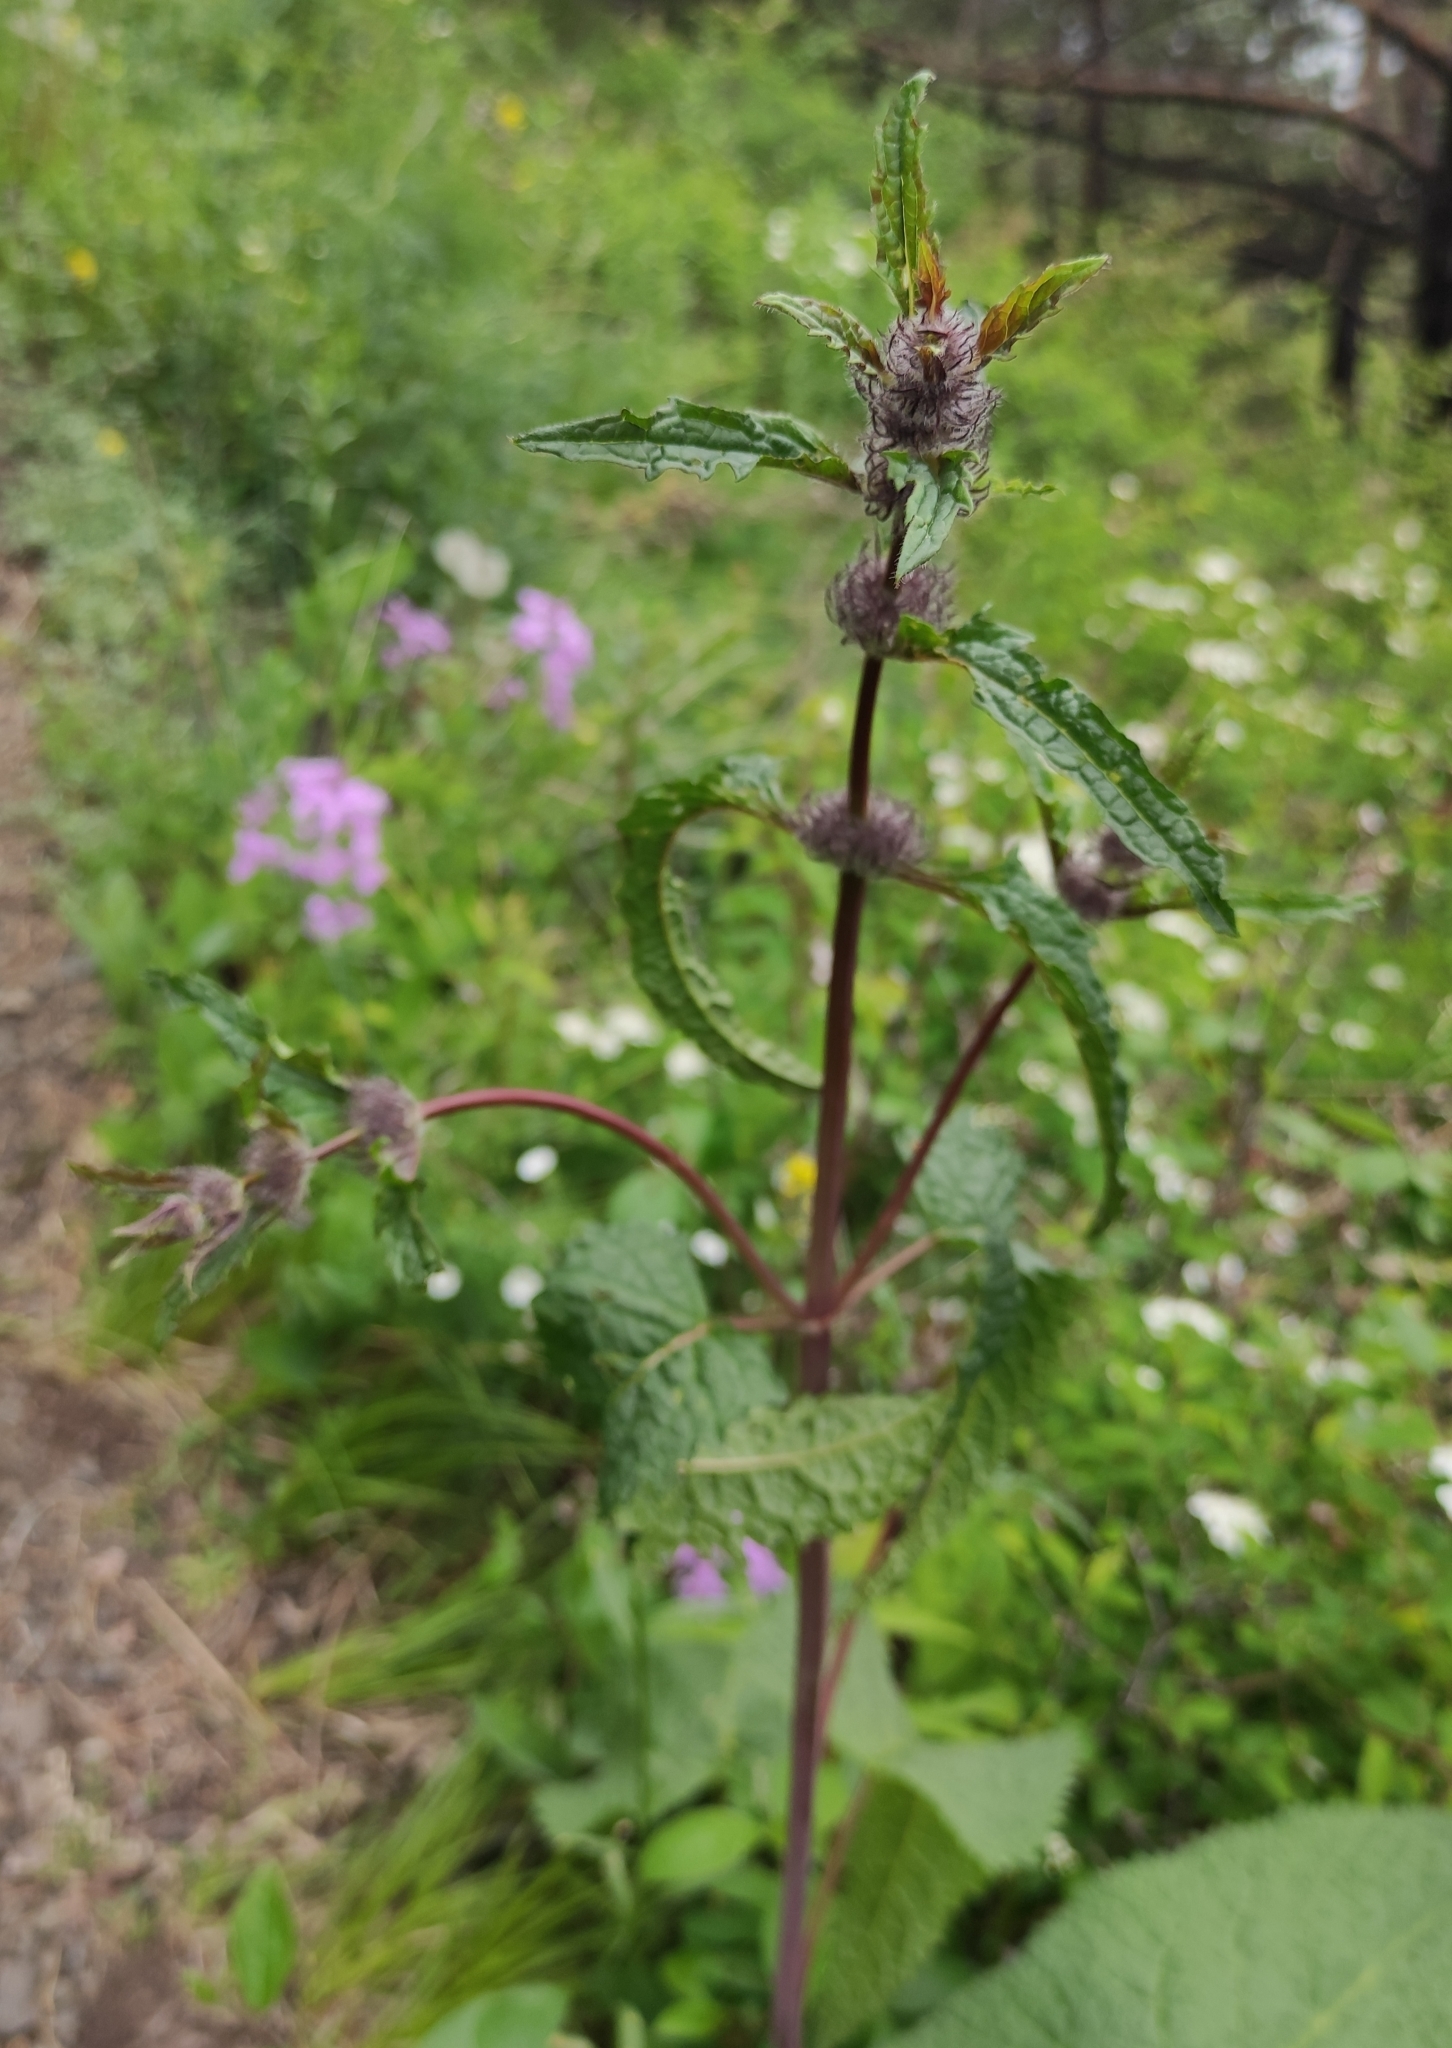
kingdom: Plantae
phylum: Tracheophyta
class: Magnoliopsida
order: Lamiales
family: Lamiaceae
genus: Phlomoides
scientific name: Phlomoides tuberosa
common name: Tuberous jerusalem sage
